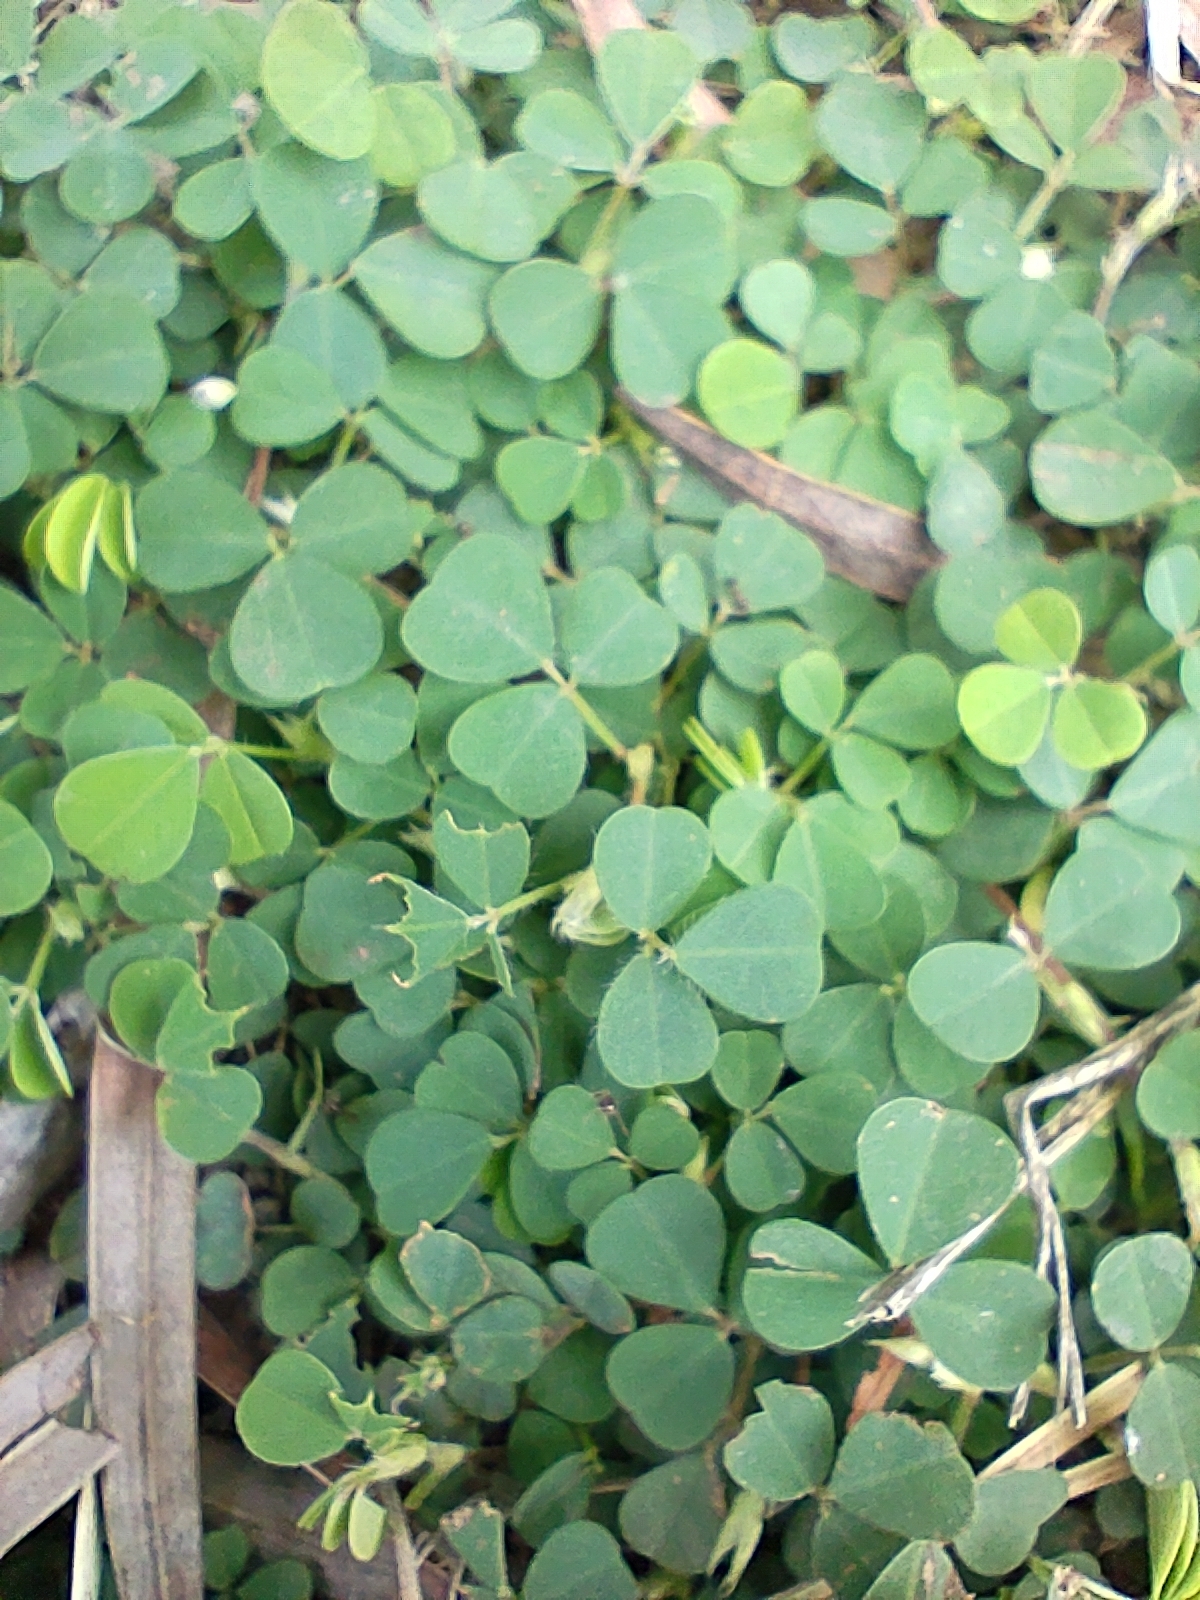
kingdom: Plantae
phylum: Tracheophyta
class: Magnoliopsida
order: Fabales
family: Fabaceae
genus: Grona
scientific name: Grona triflora
